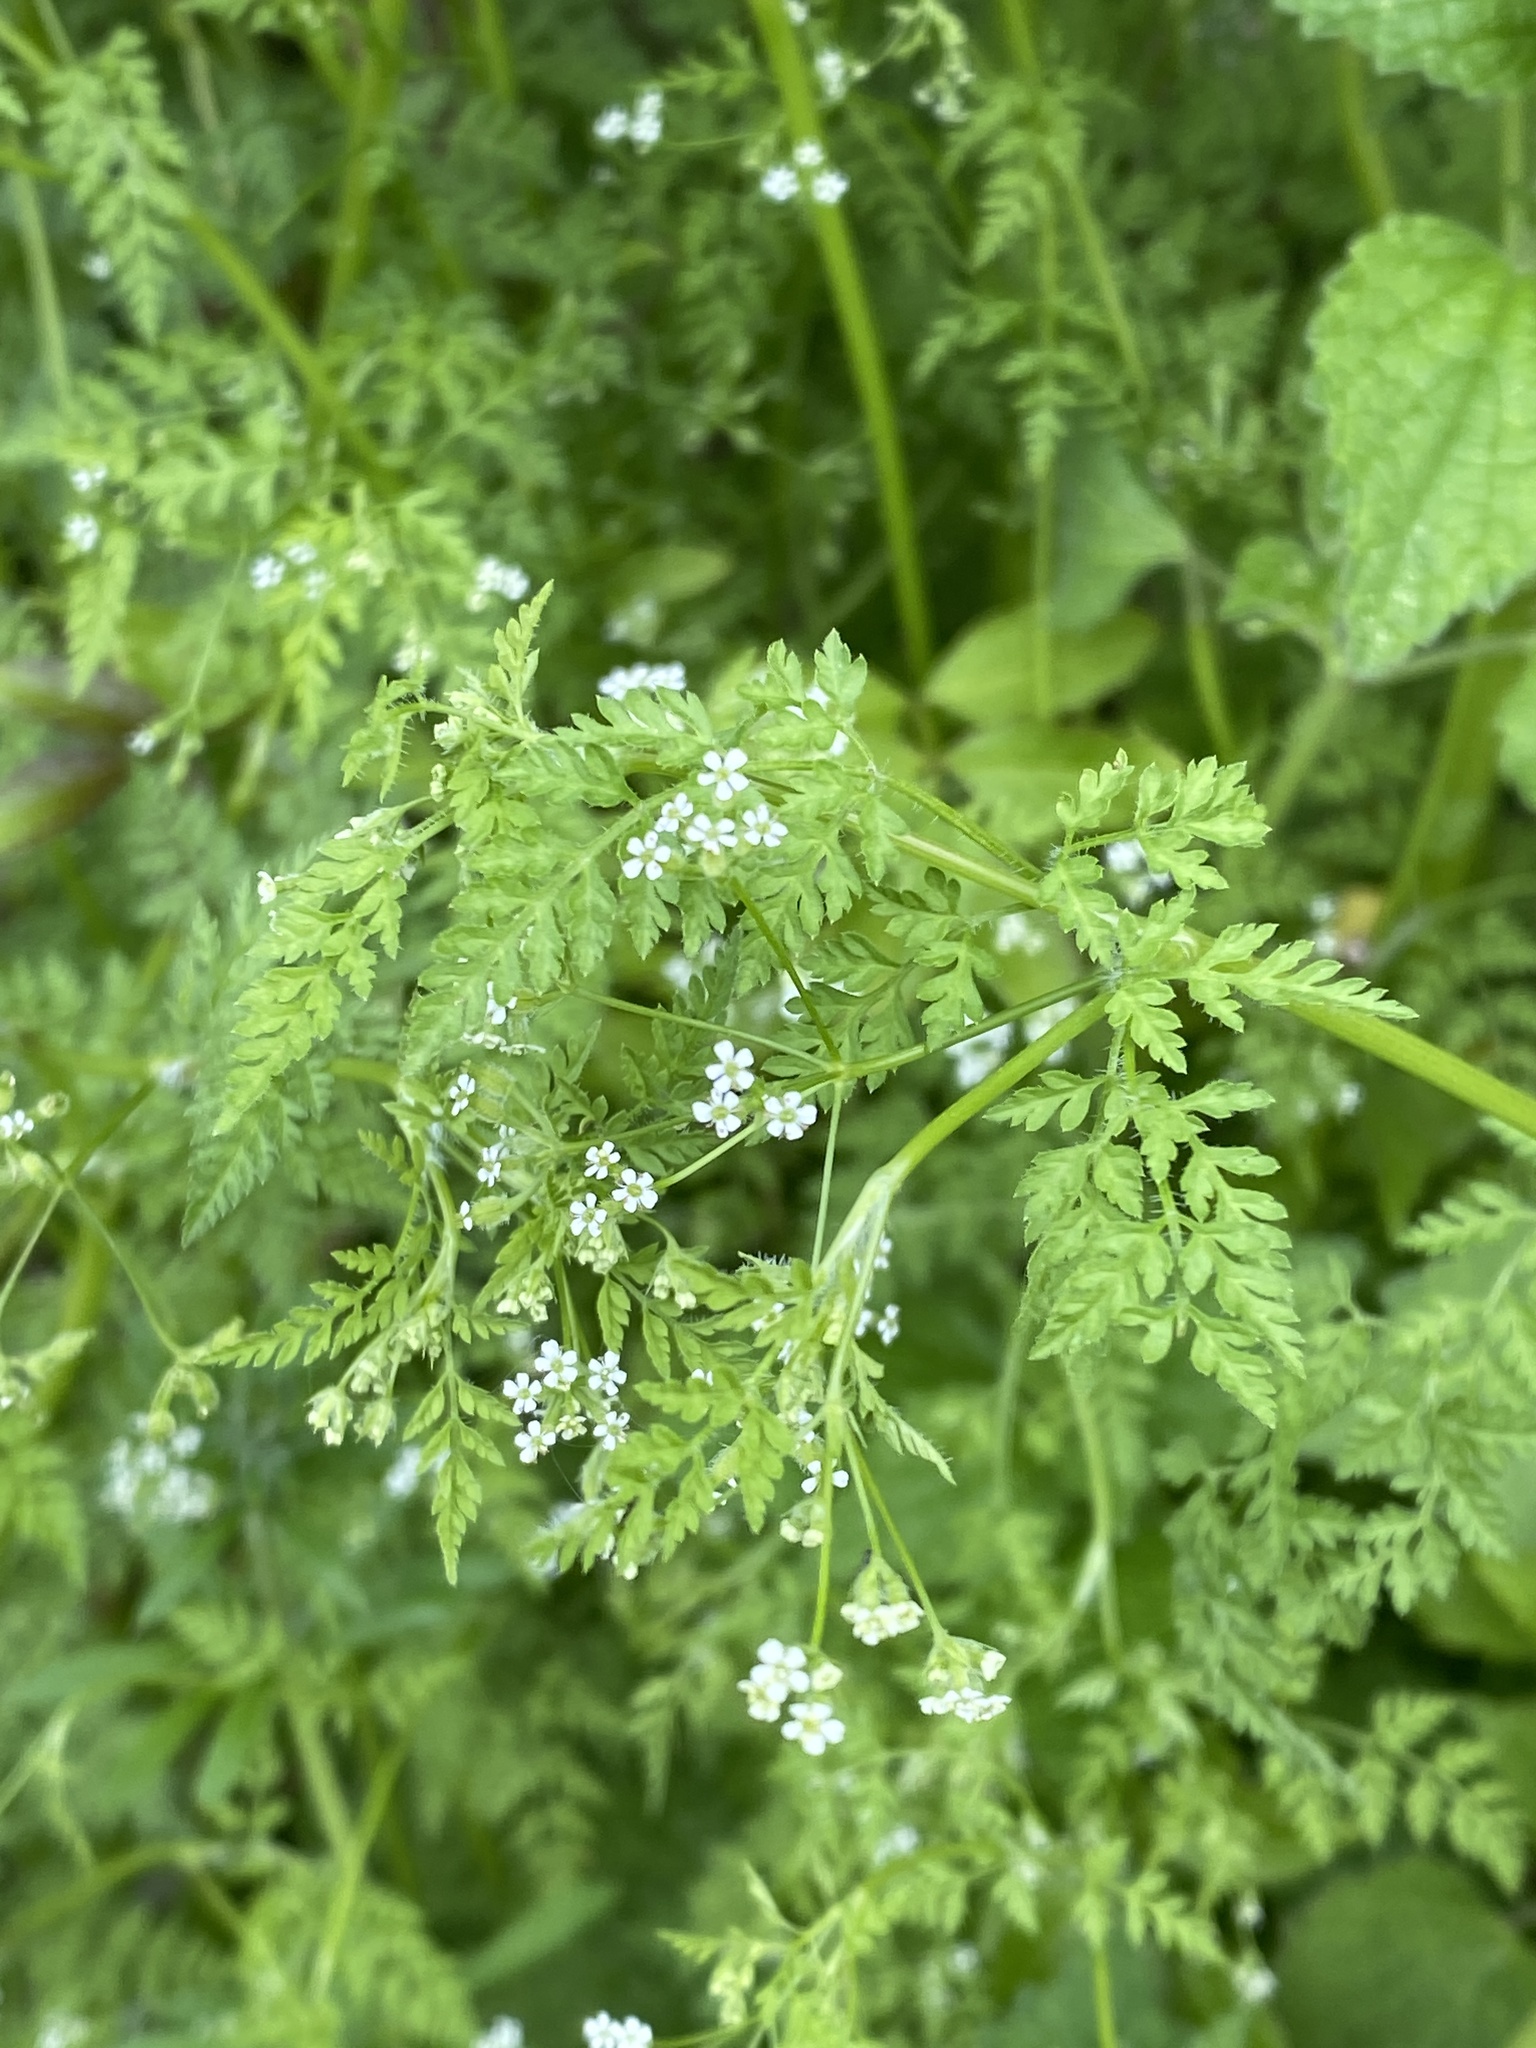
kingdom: Plantae
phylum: Tracheophyta
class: Magnoliopsida
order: Apiales
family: Apiaceae
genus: Anthriscus
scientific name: Anthriscus caucalis
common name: Bur chervil
